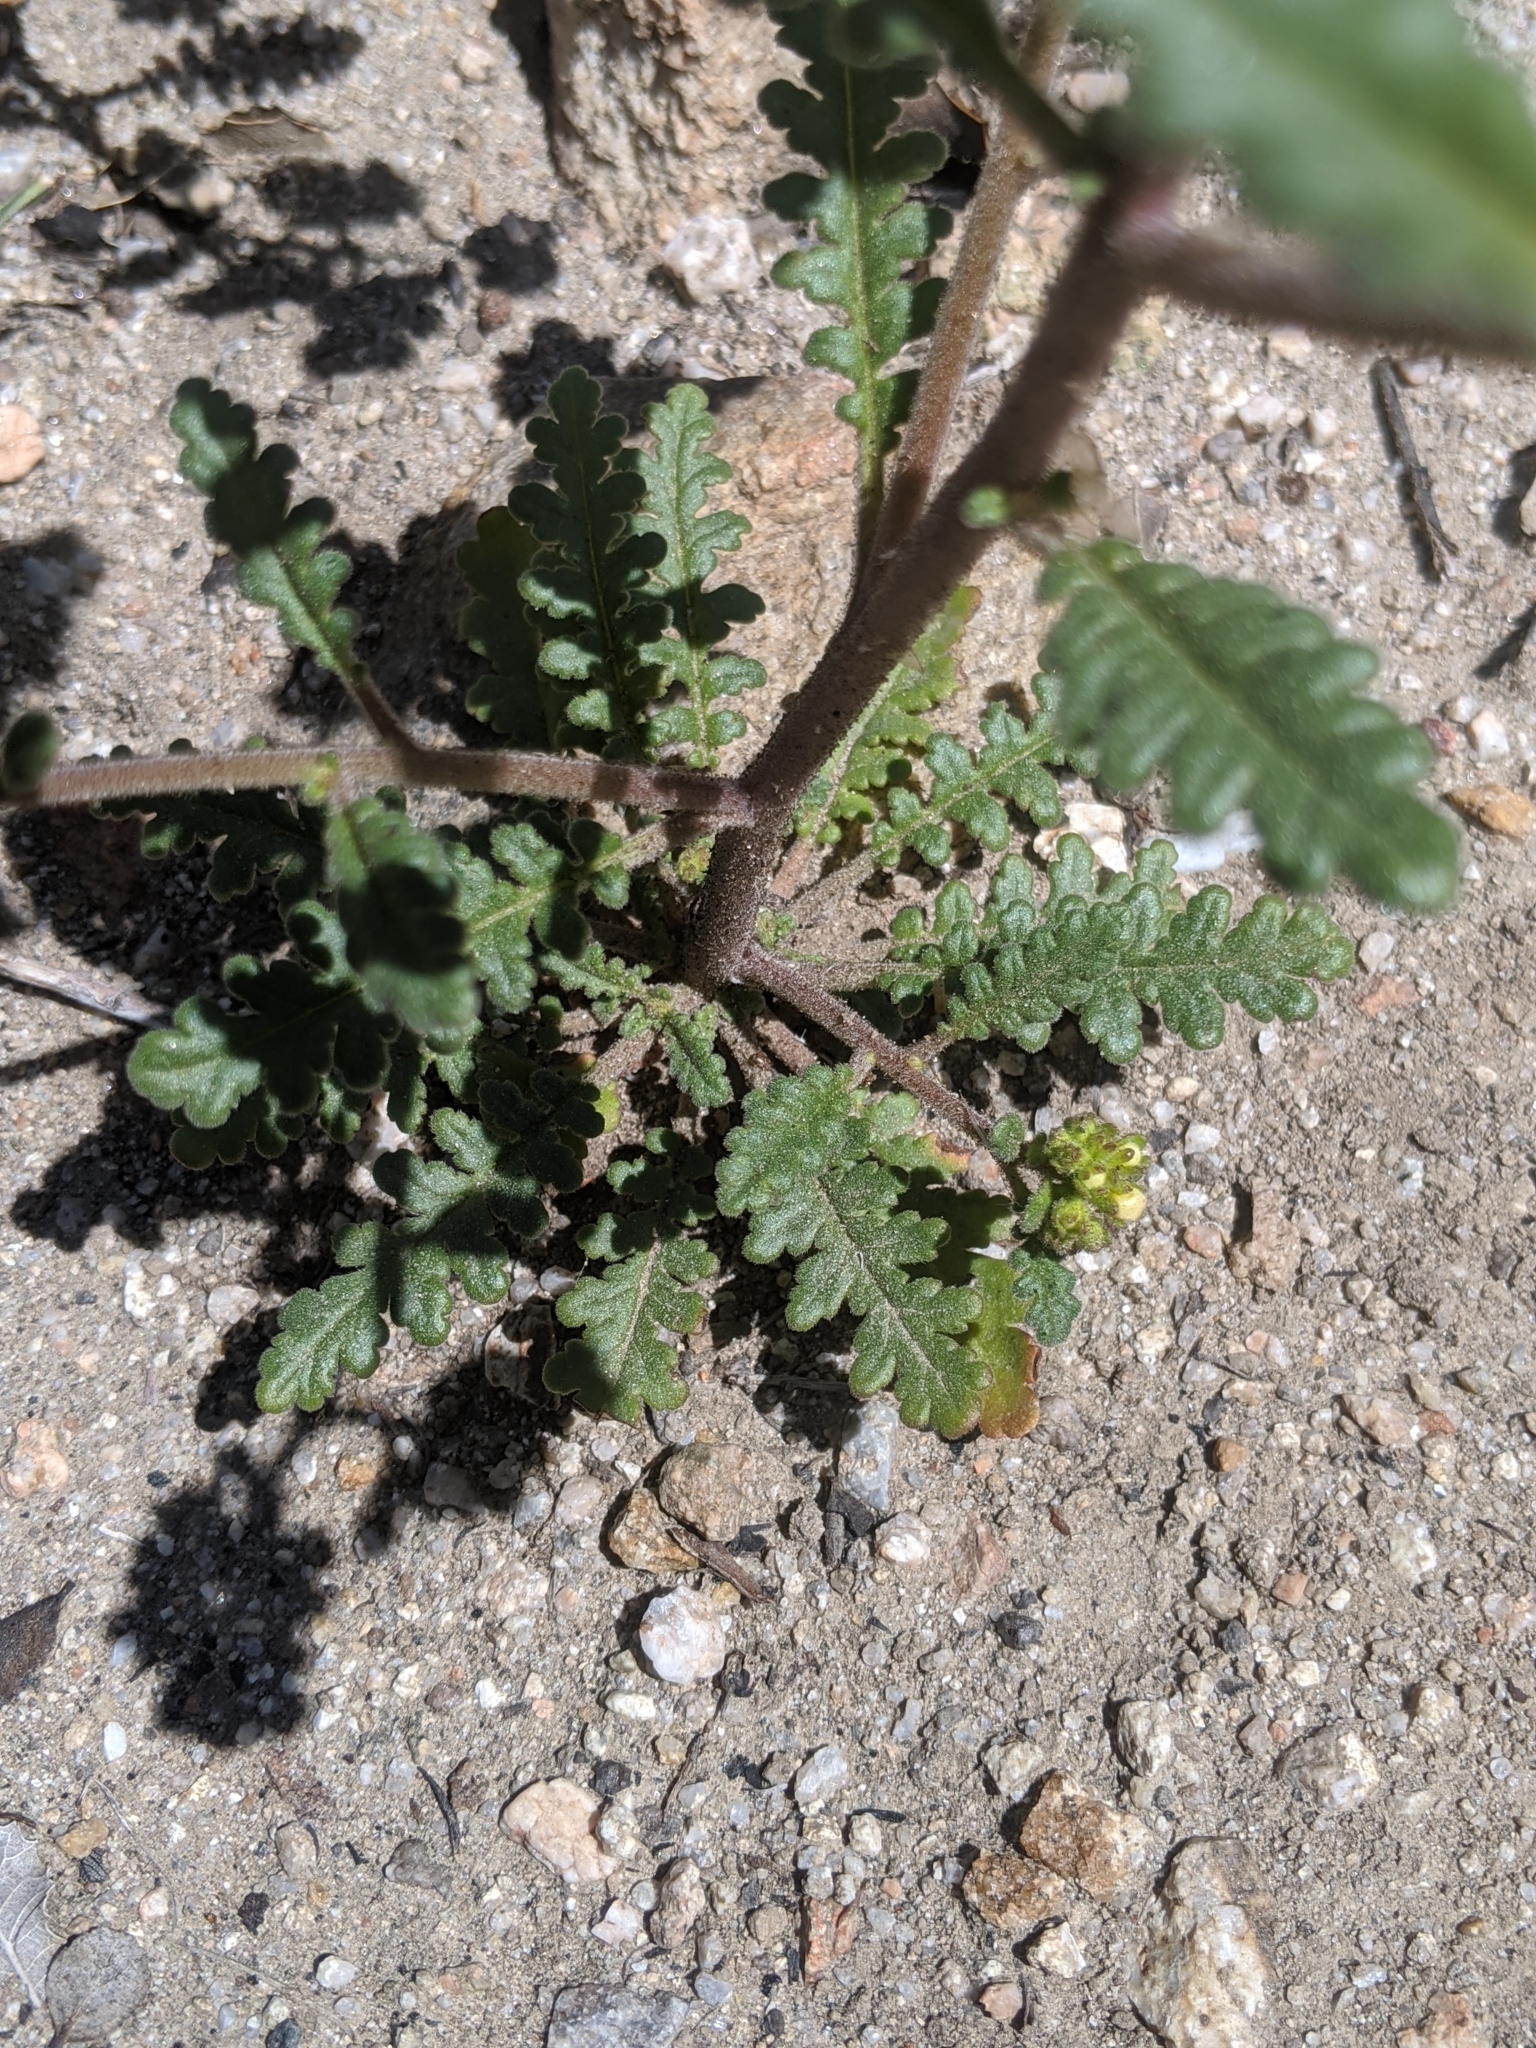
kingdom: Plantae
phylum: Tracheophyta
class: Magnoliopsida
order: Boraginales
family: Hydrophyllaceae
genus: Phacelia
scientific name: Phacelia brachyloba
